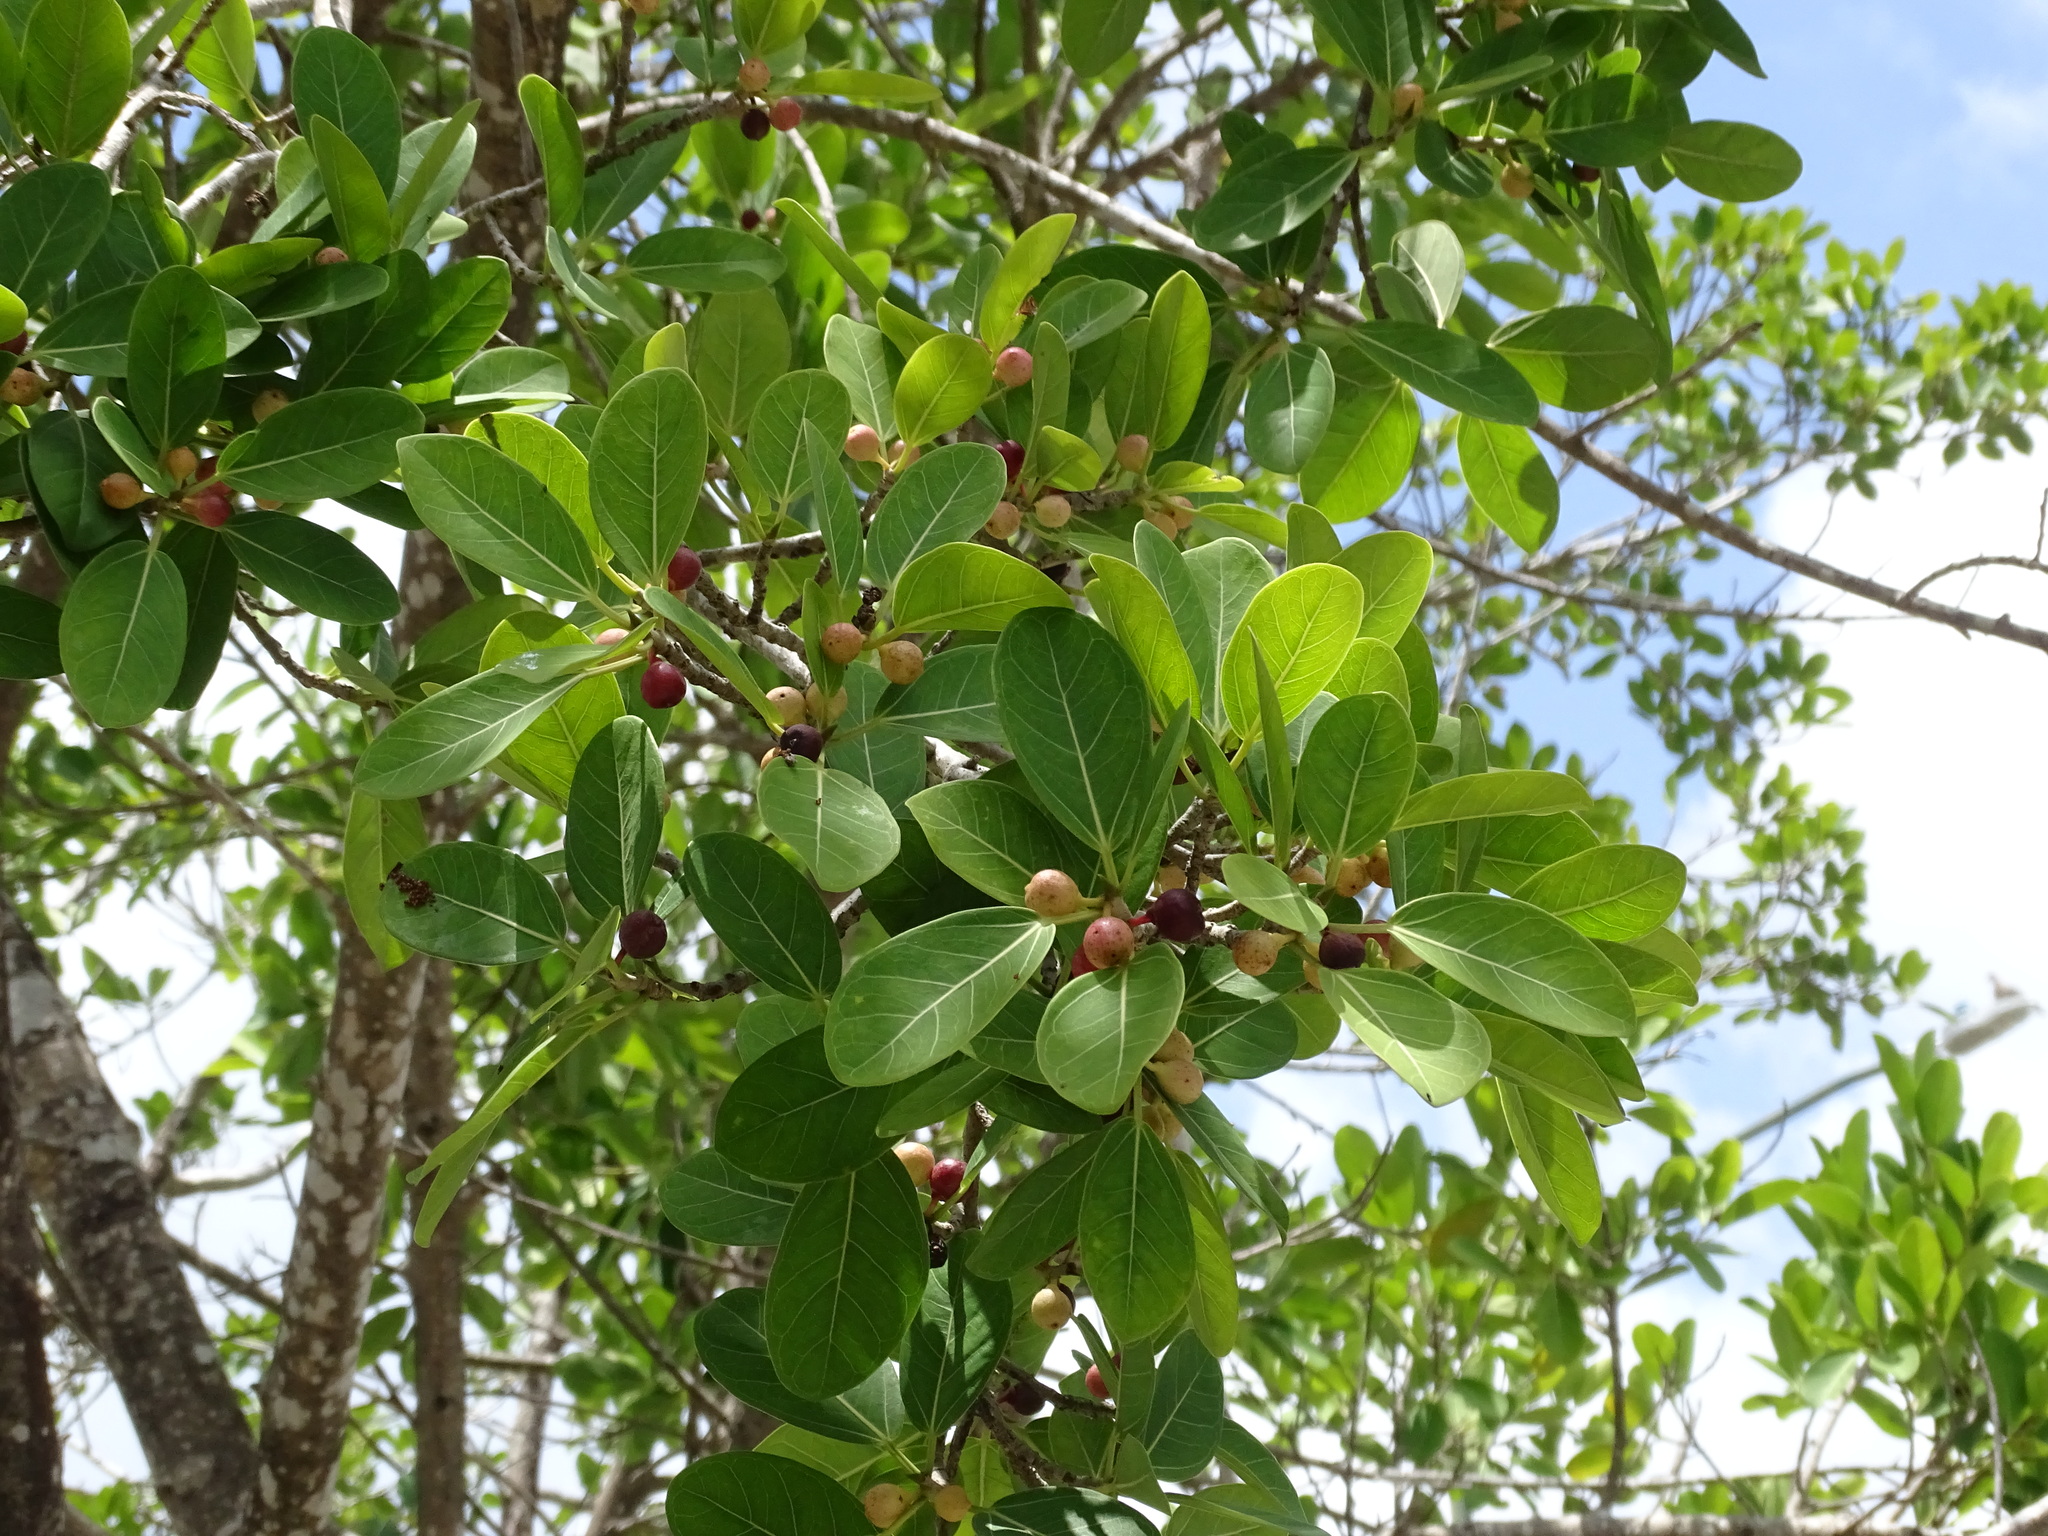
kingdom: Plantae
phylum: Tracheophyta
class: Magnoliopsida
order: Rosales
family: Moraceae
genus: Ficus
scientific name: Ficus crassinervia
